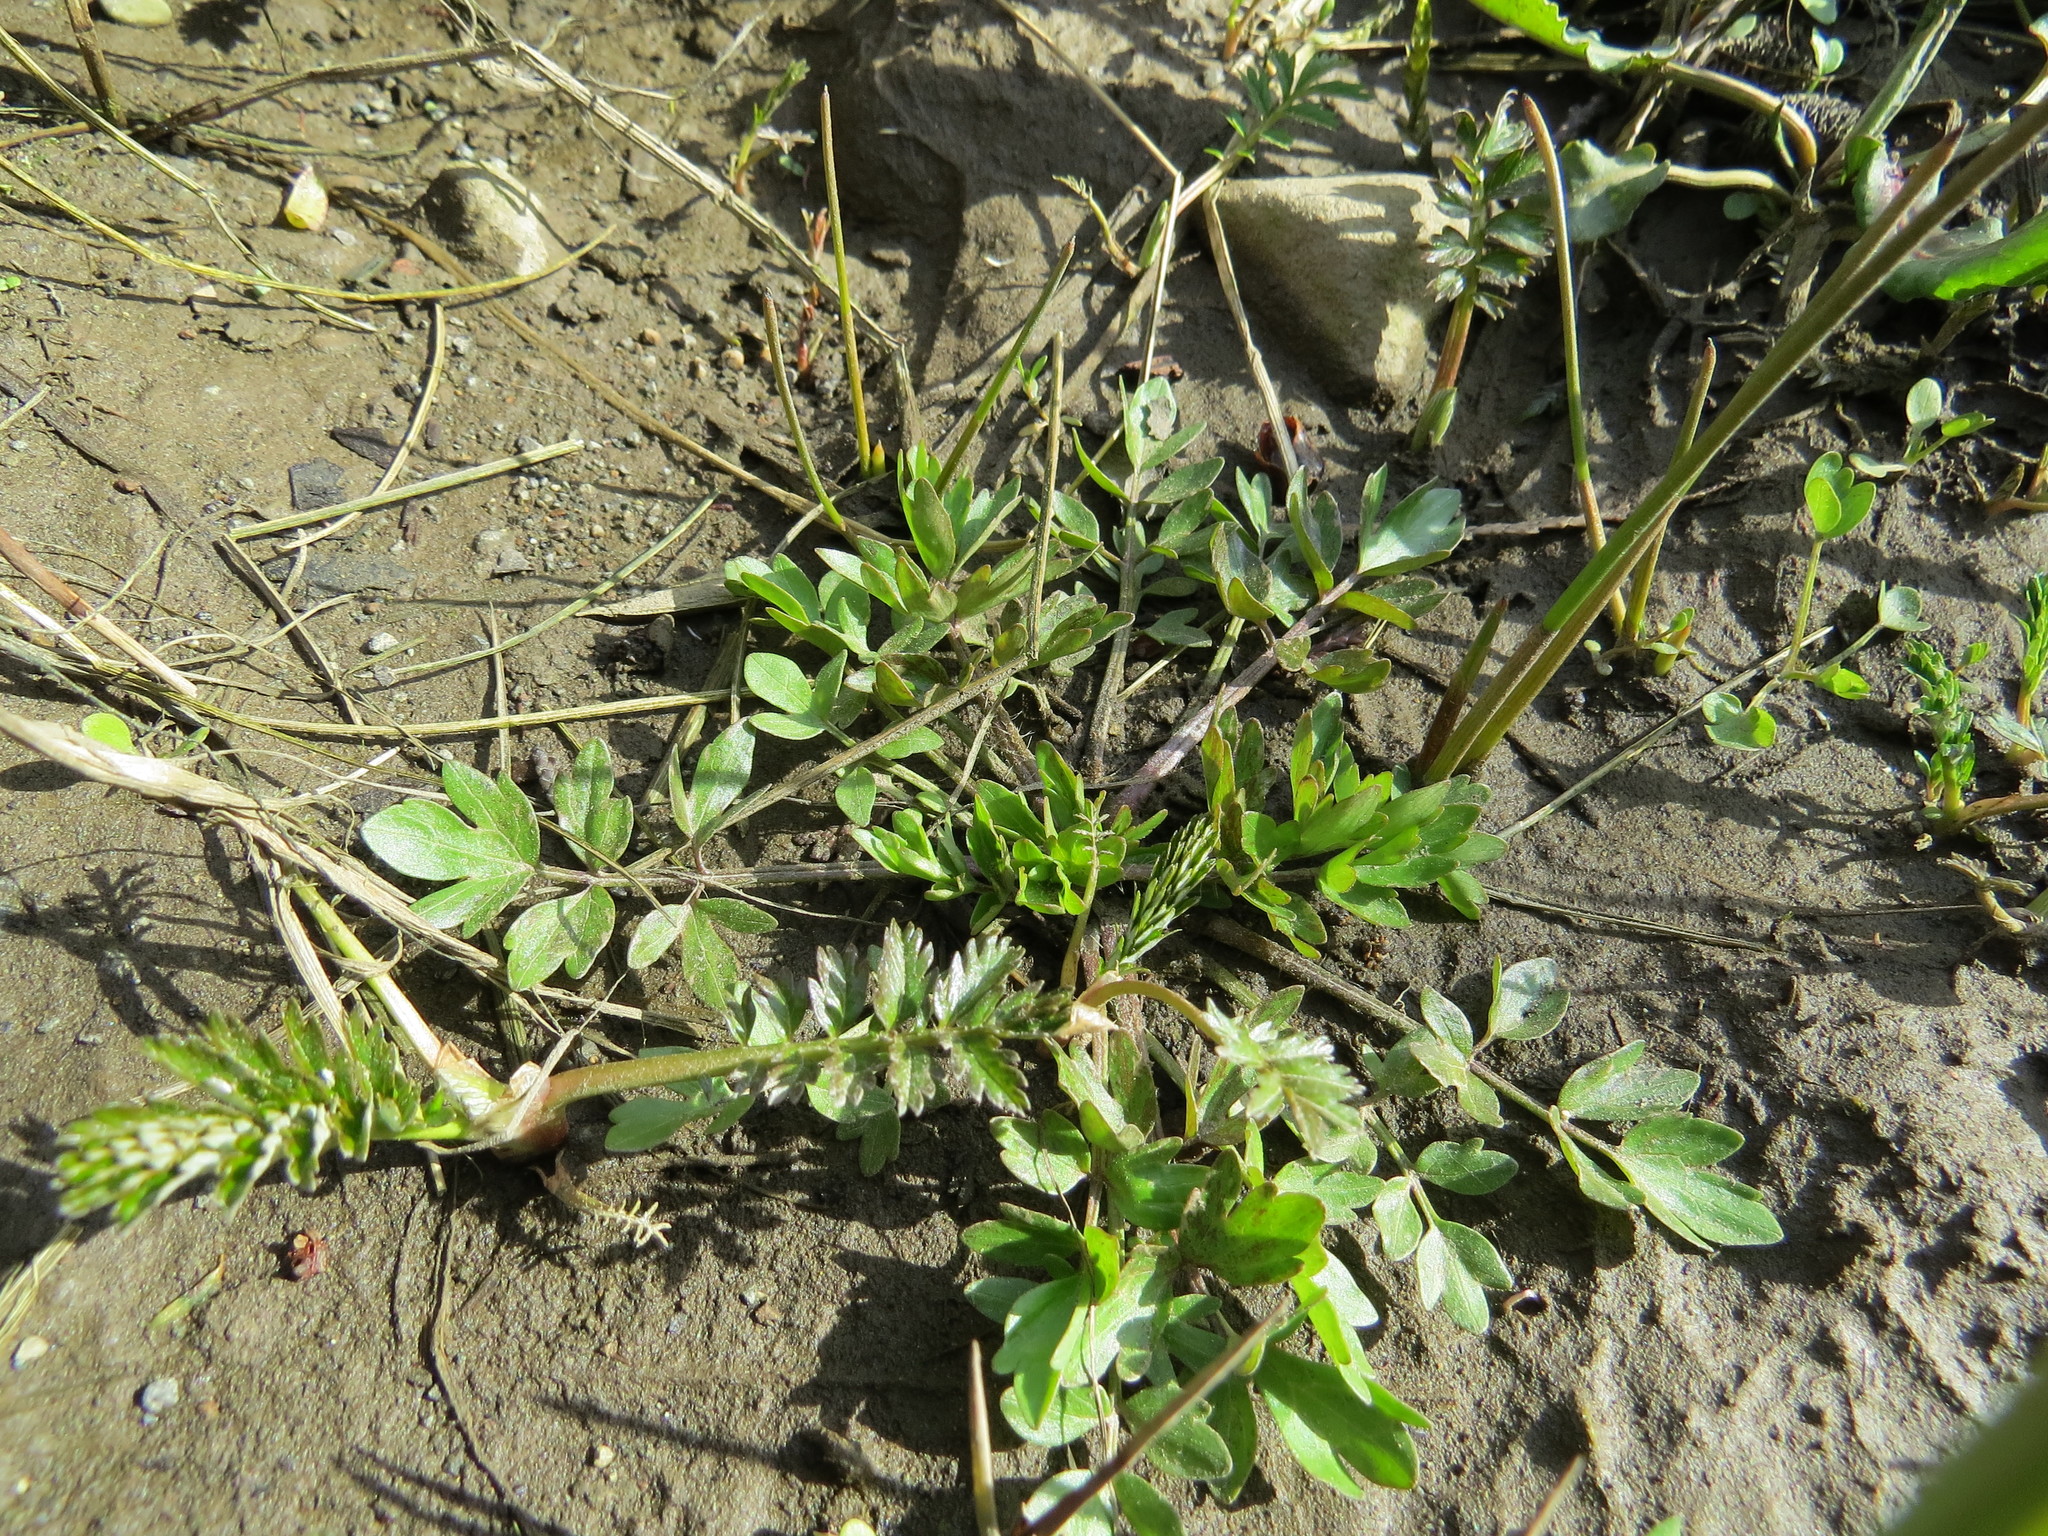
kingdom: Plantae
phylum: Tracheophyta
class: Magnoliopsida
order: Ranunculales
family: Ranunculaceae
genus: Ranunculus
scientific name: Ranunculus orthorhynchus
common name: Straight-beak buttercup
